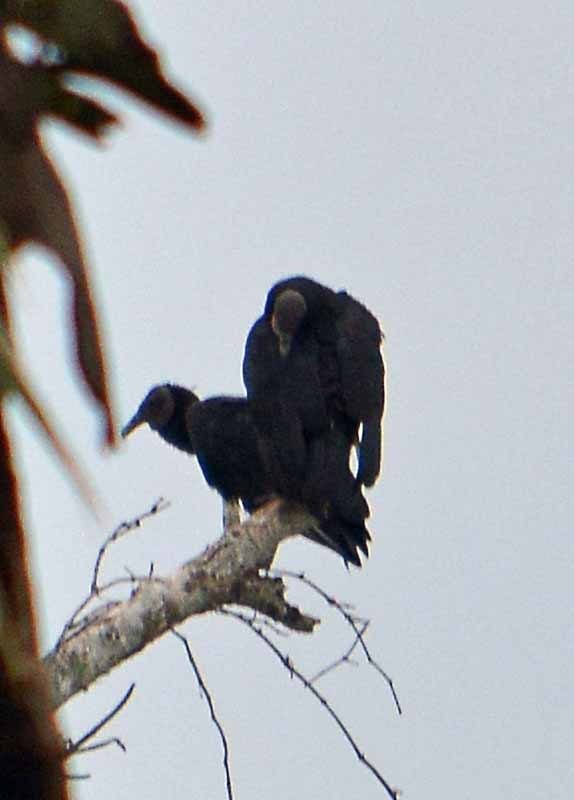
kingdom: Animalia
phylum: Chordata
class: Aves
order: Accipitriformes
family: Cathartidae
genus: Coragyps
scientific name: Coragyps atratus
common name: Black vulture
